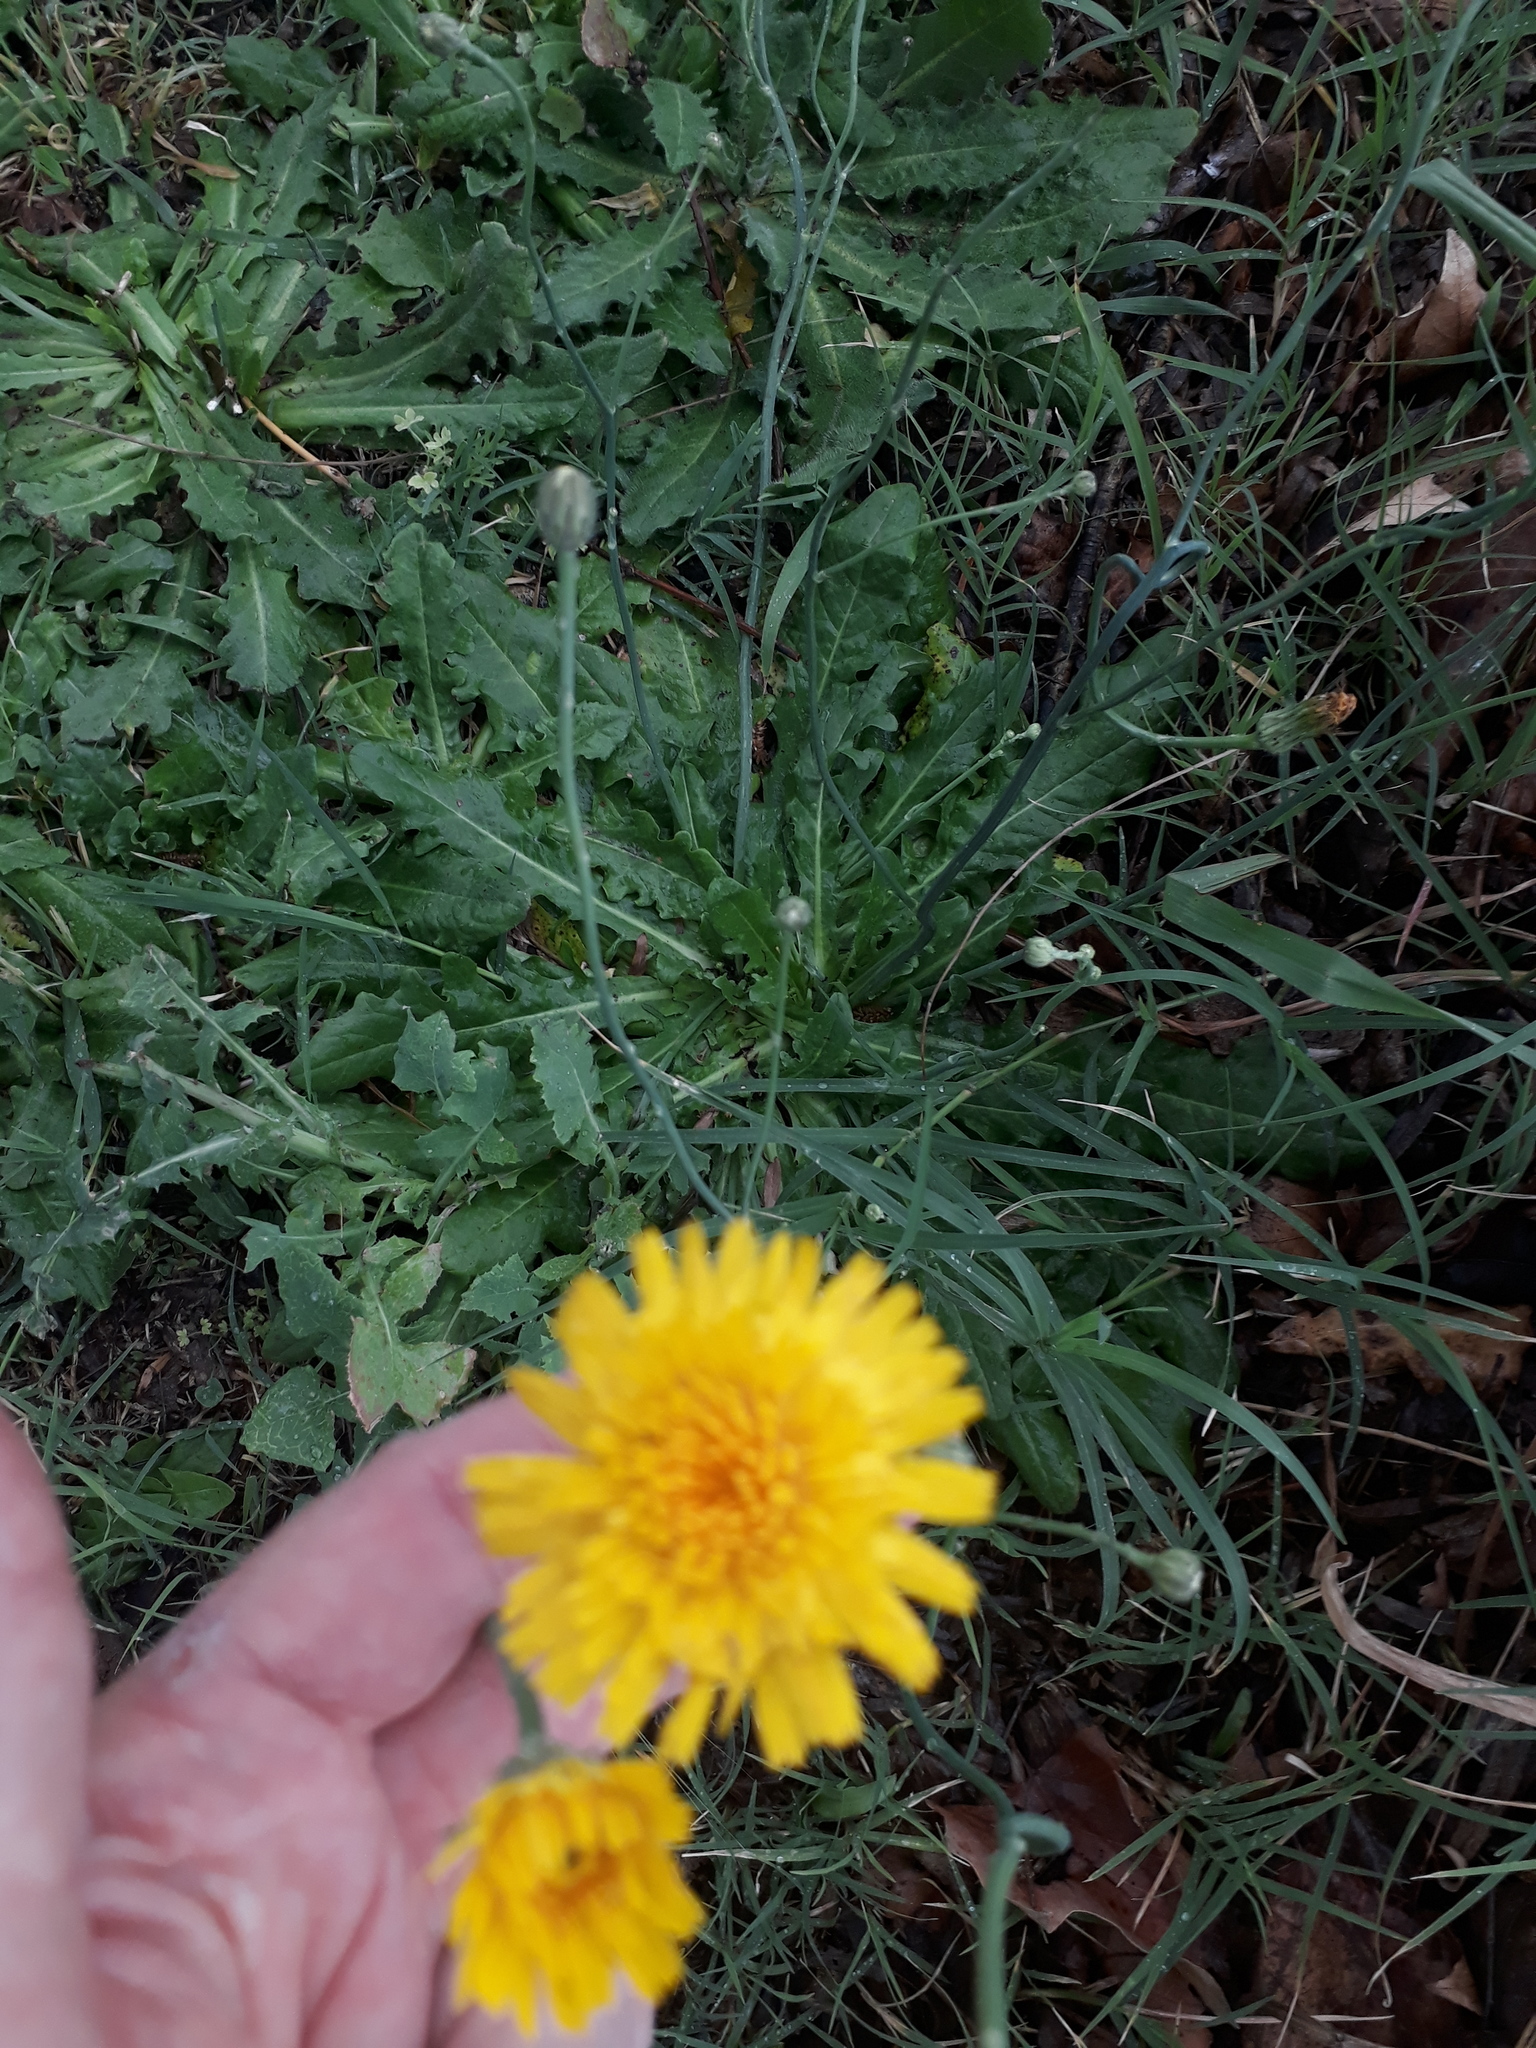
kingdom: Plantae
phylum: Tracheophyta
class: Magnoliopsida
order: Asterales
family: Asteraceae
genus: Hypochaeris
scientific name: Hypochaeris radicata
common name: Flatweed
